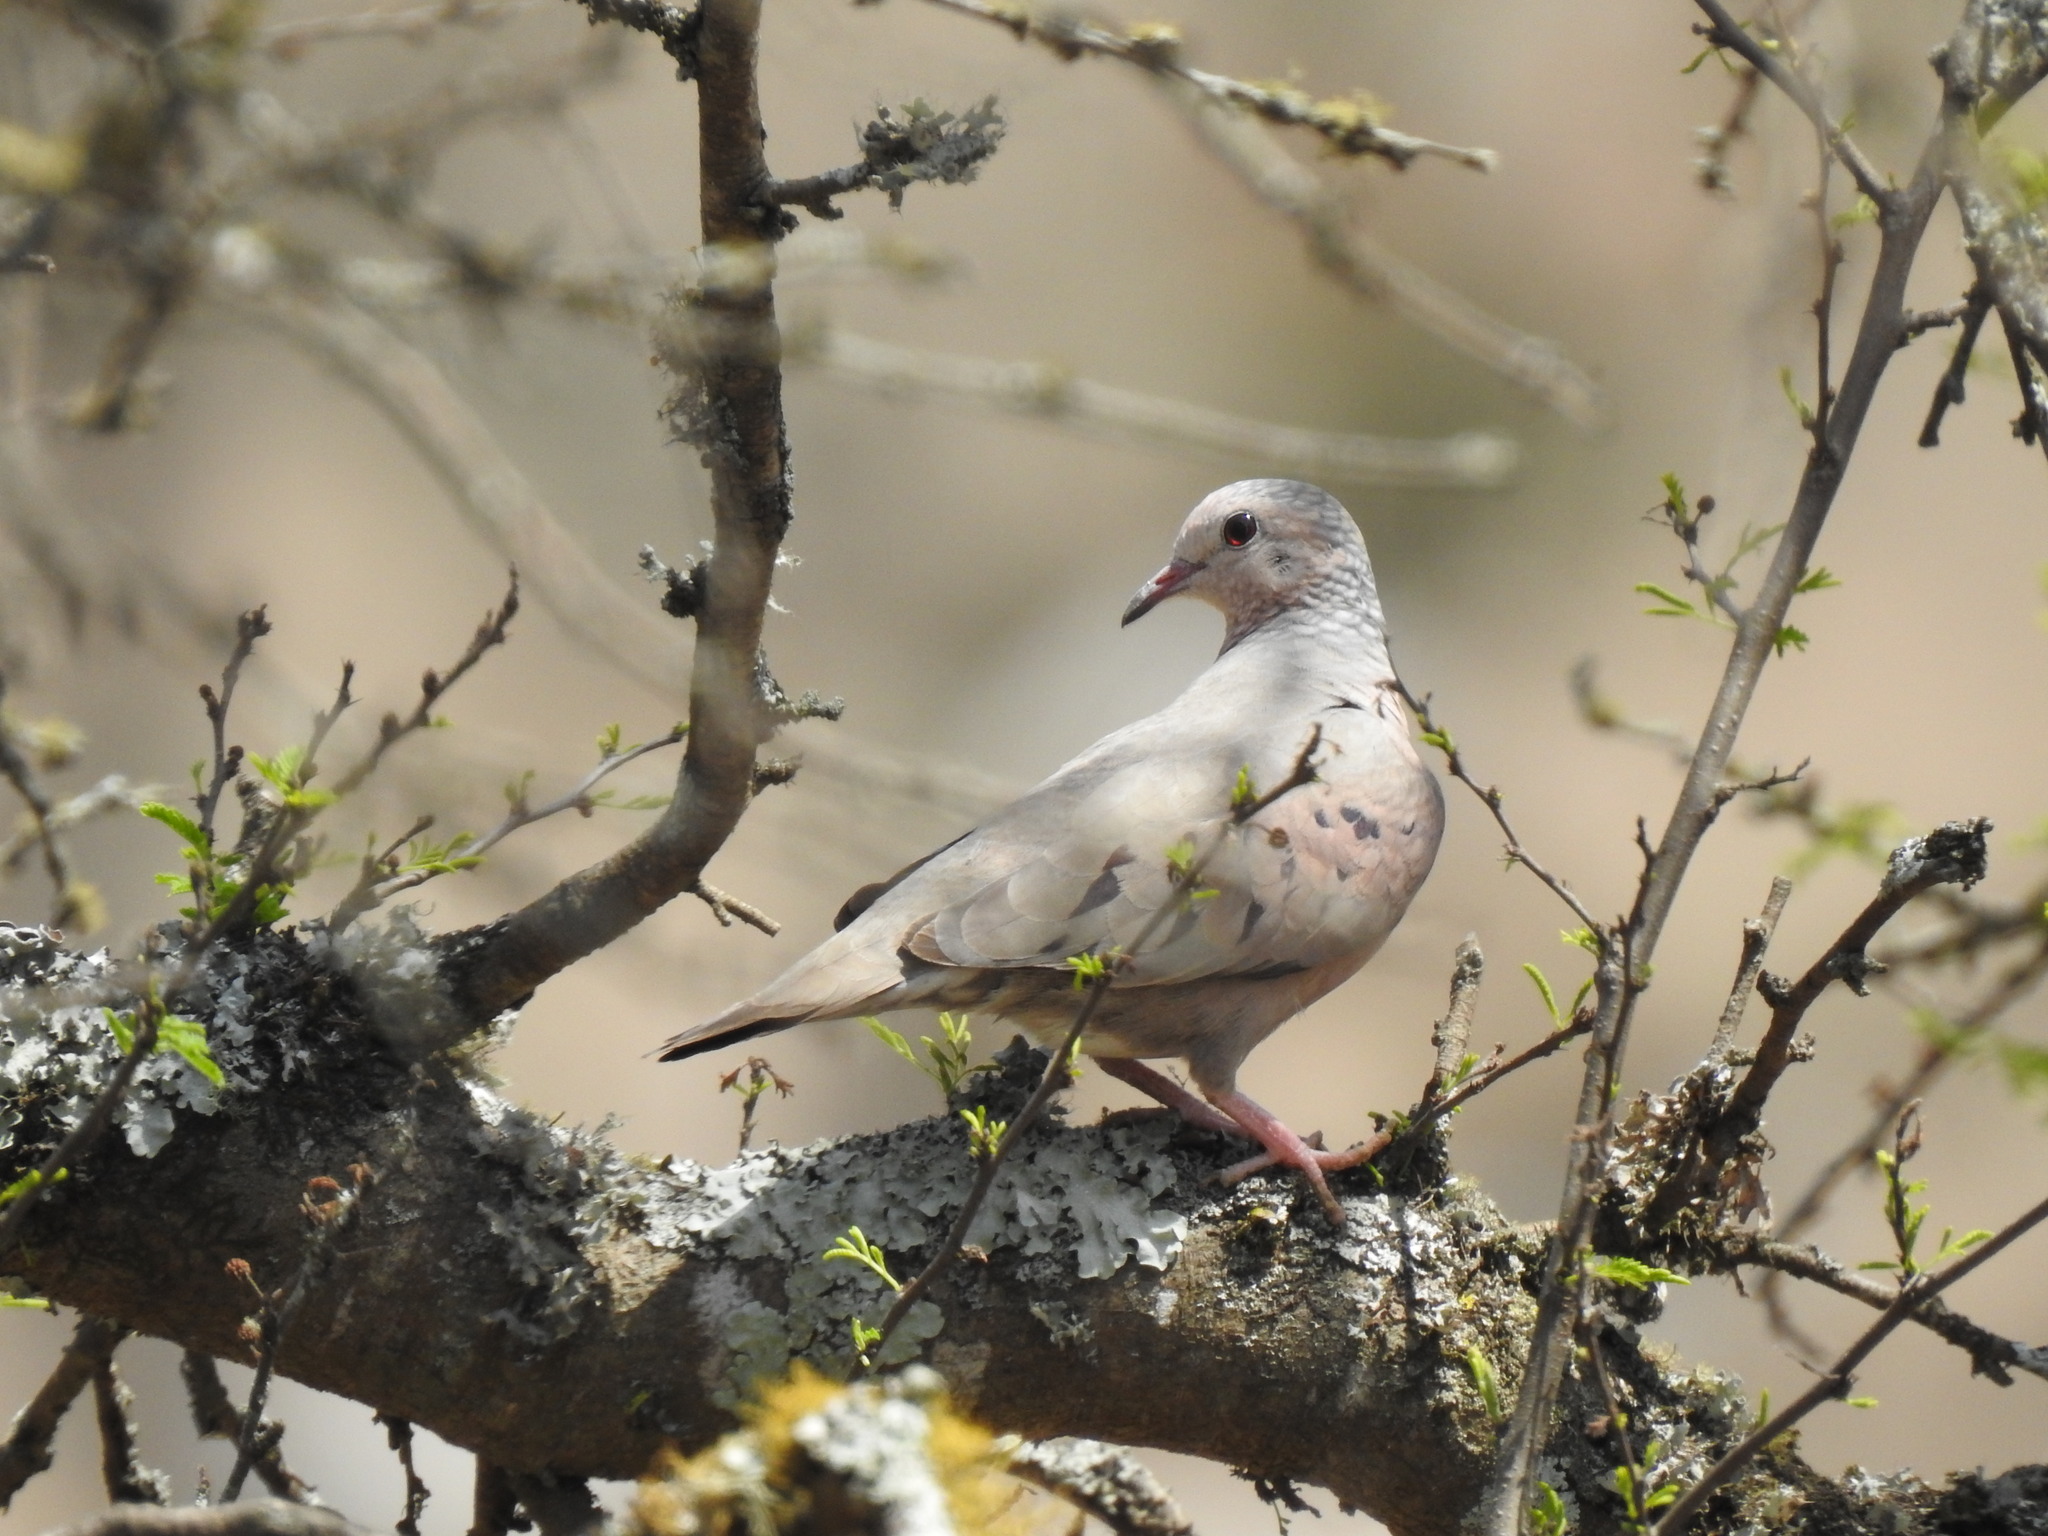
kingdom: Animalia
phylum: Chordata
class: Aves
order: Columbiformes
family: Columbidae
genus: Columbina
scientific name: Columbina passerina
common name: Common ground-dove
